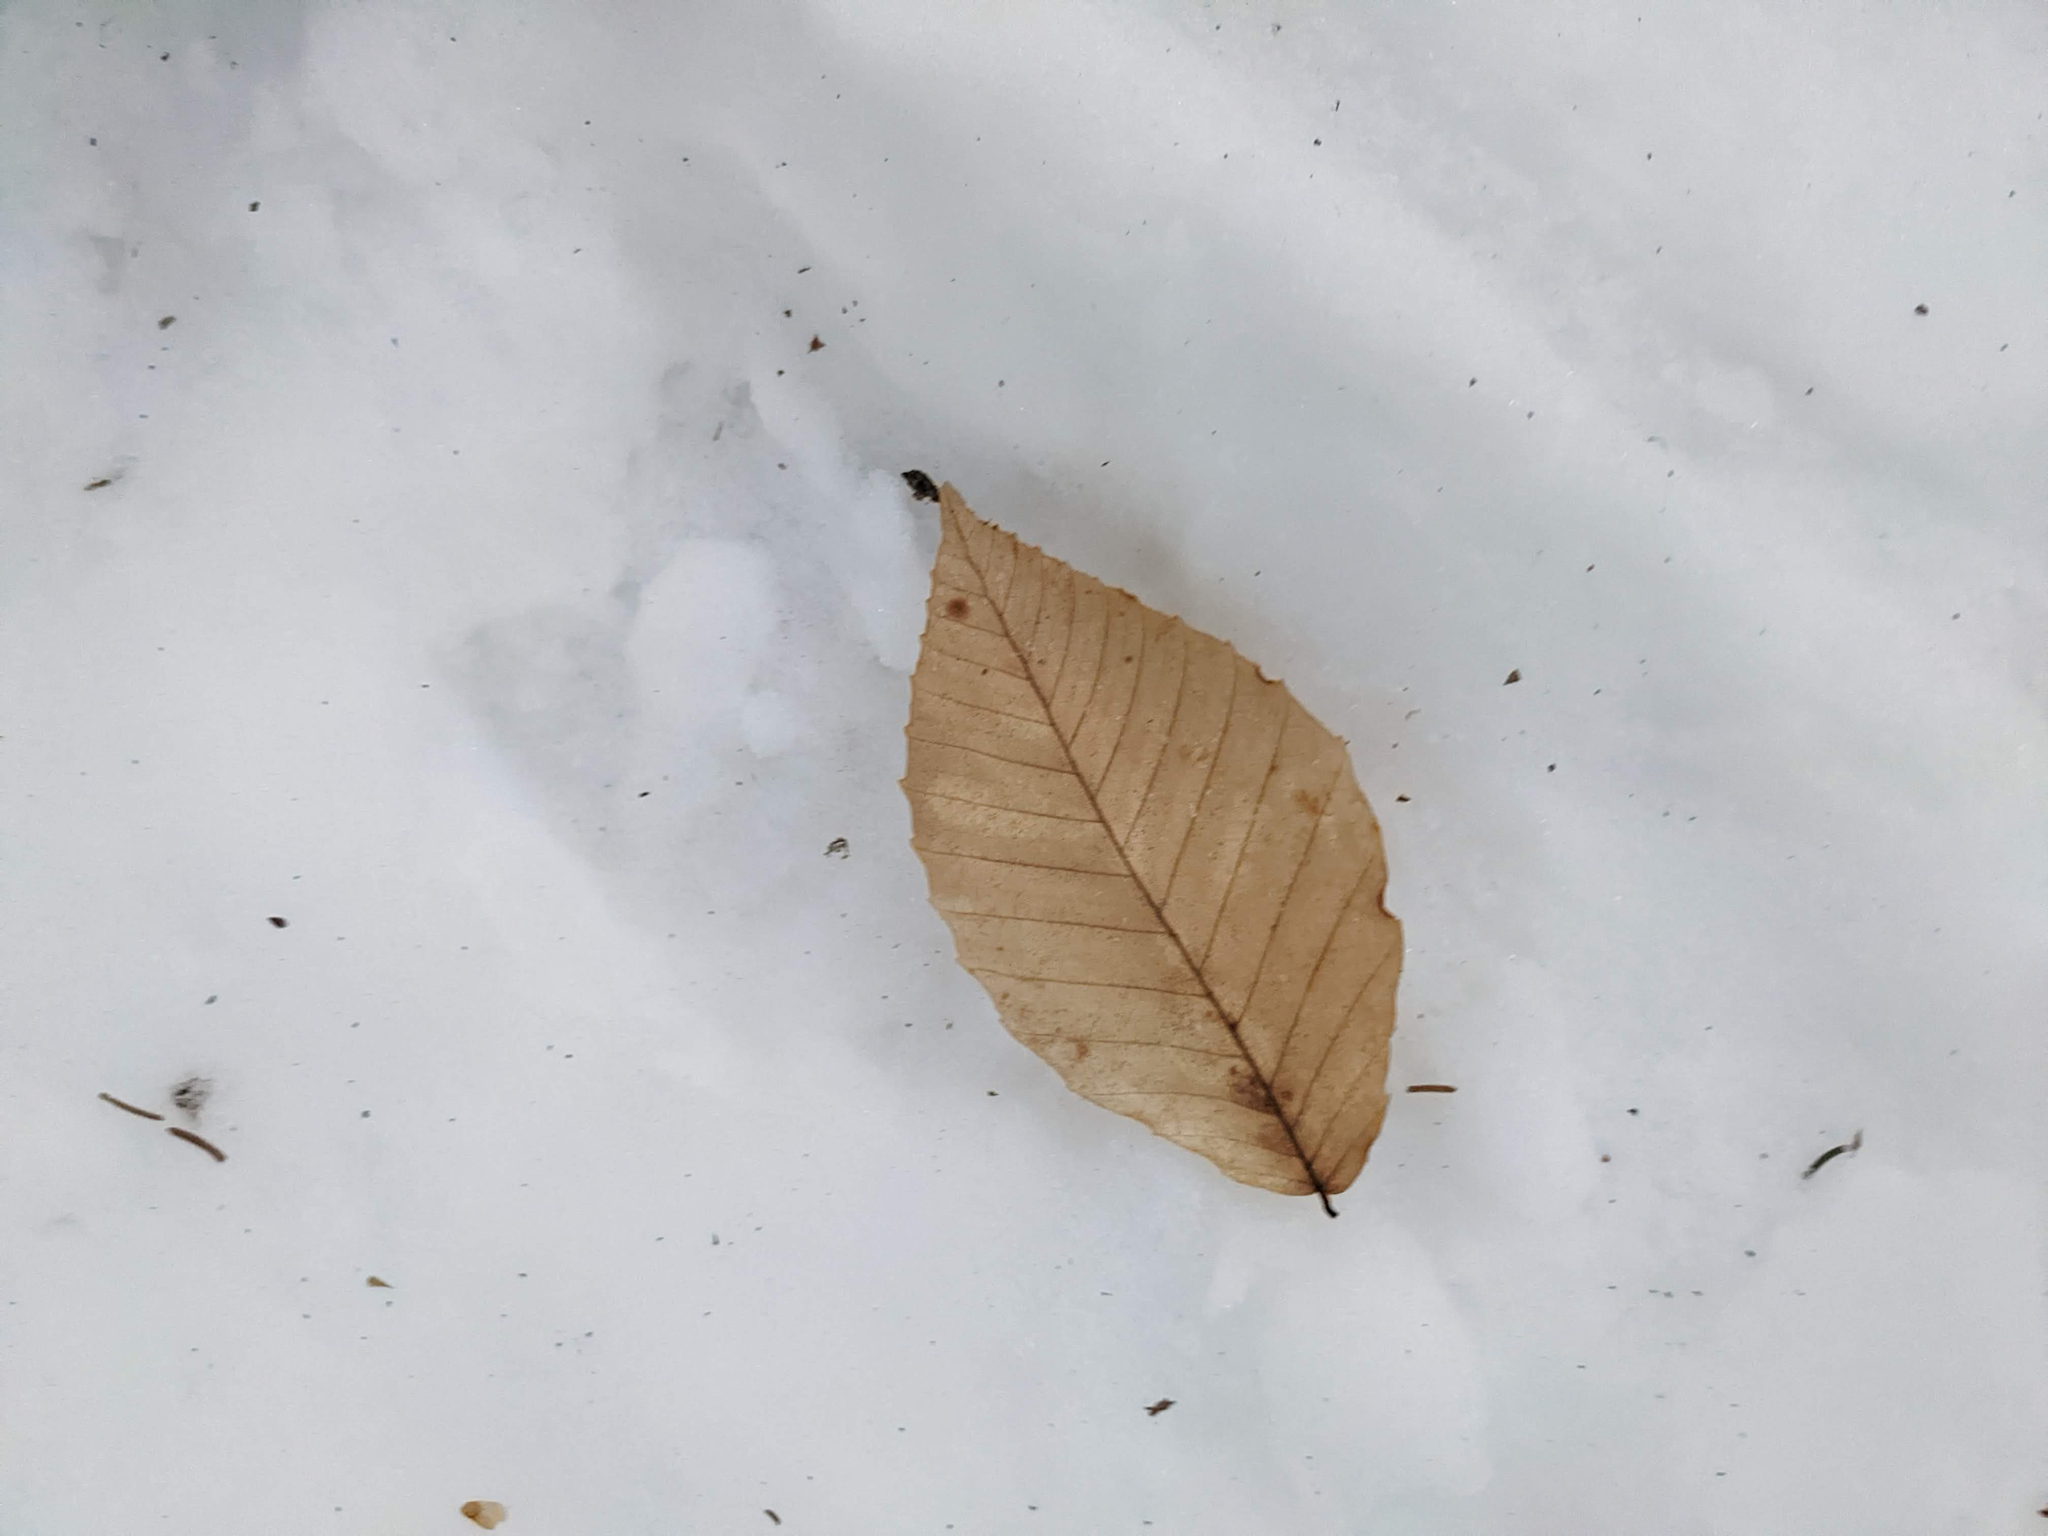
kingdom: Plantae
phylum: Tracheophyta
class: Magnoliopsida
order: Fagales
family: Fagaceae
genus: Fagus
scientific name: Fagus grandifolia
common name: American beech
